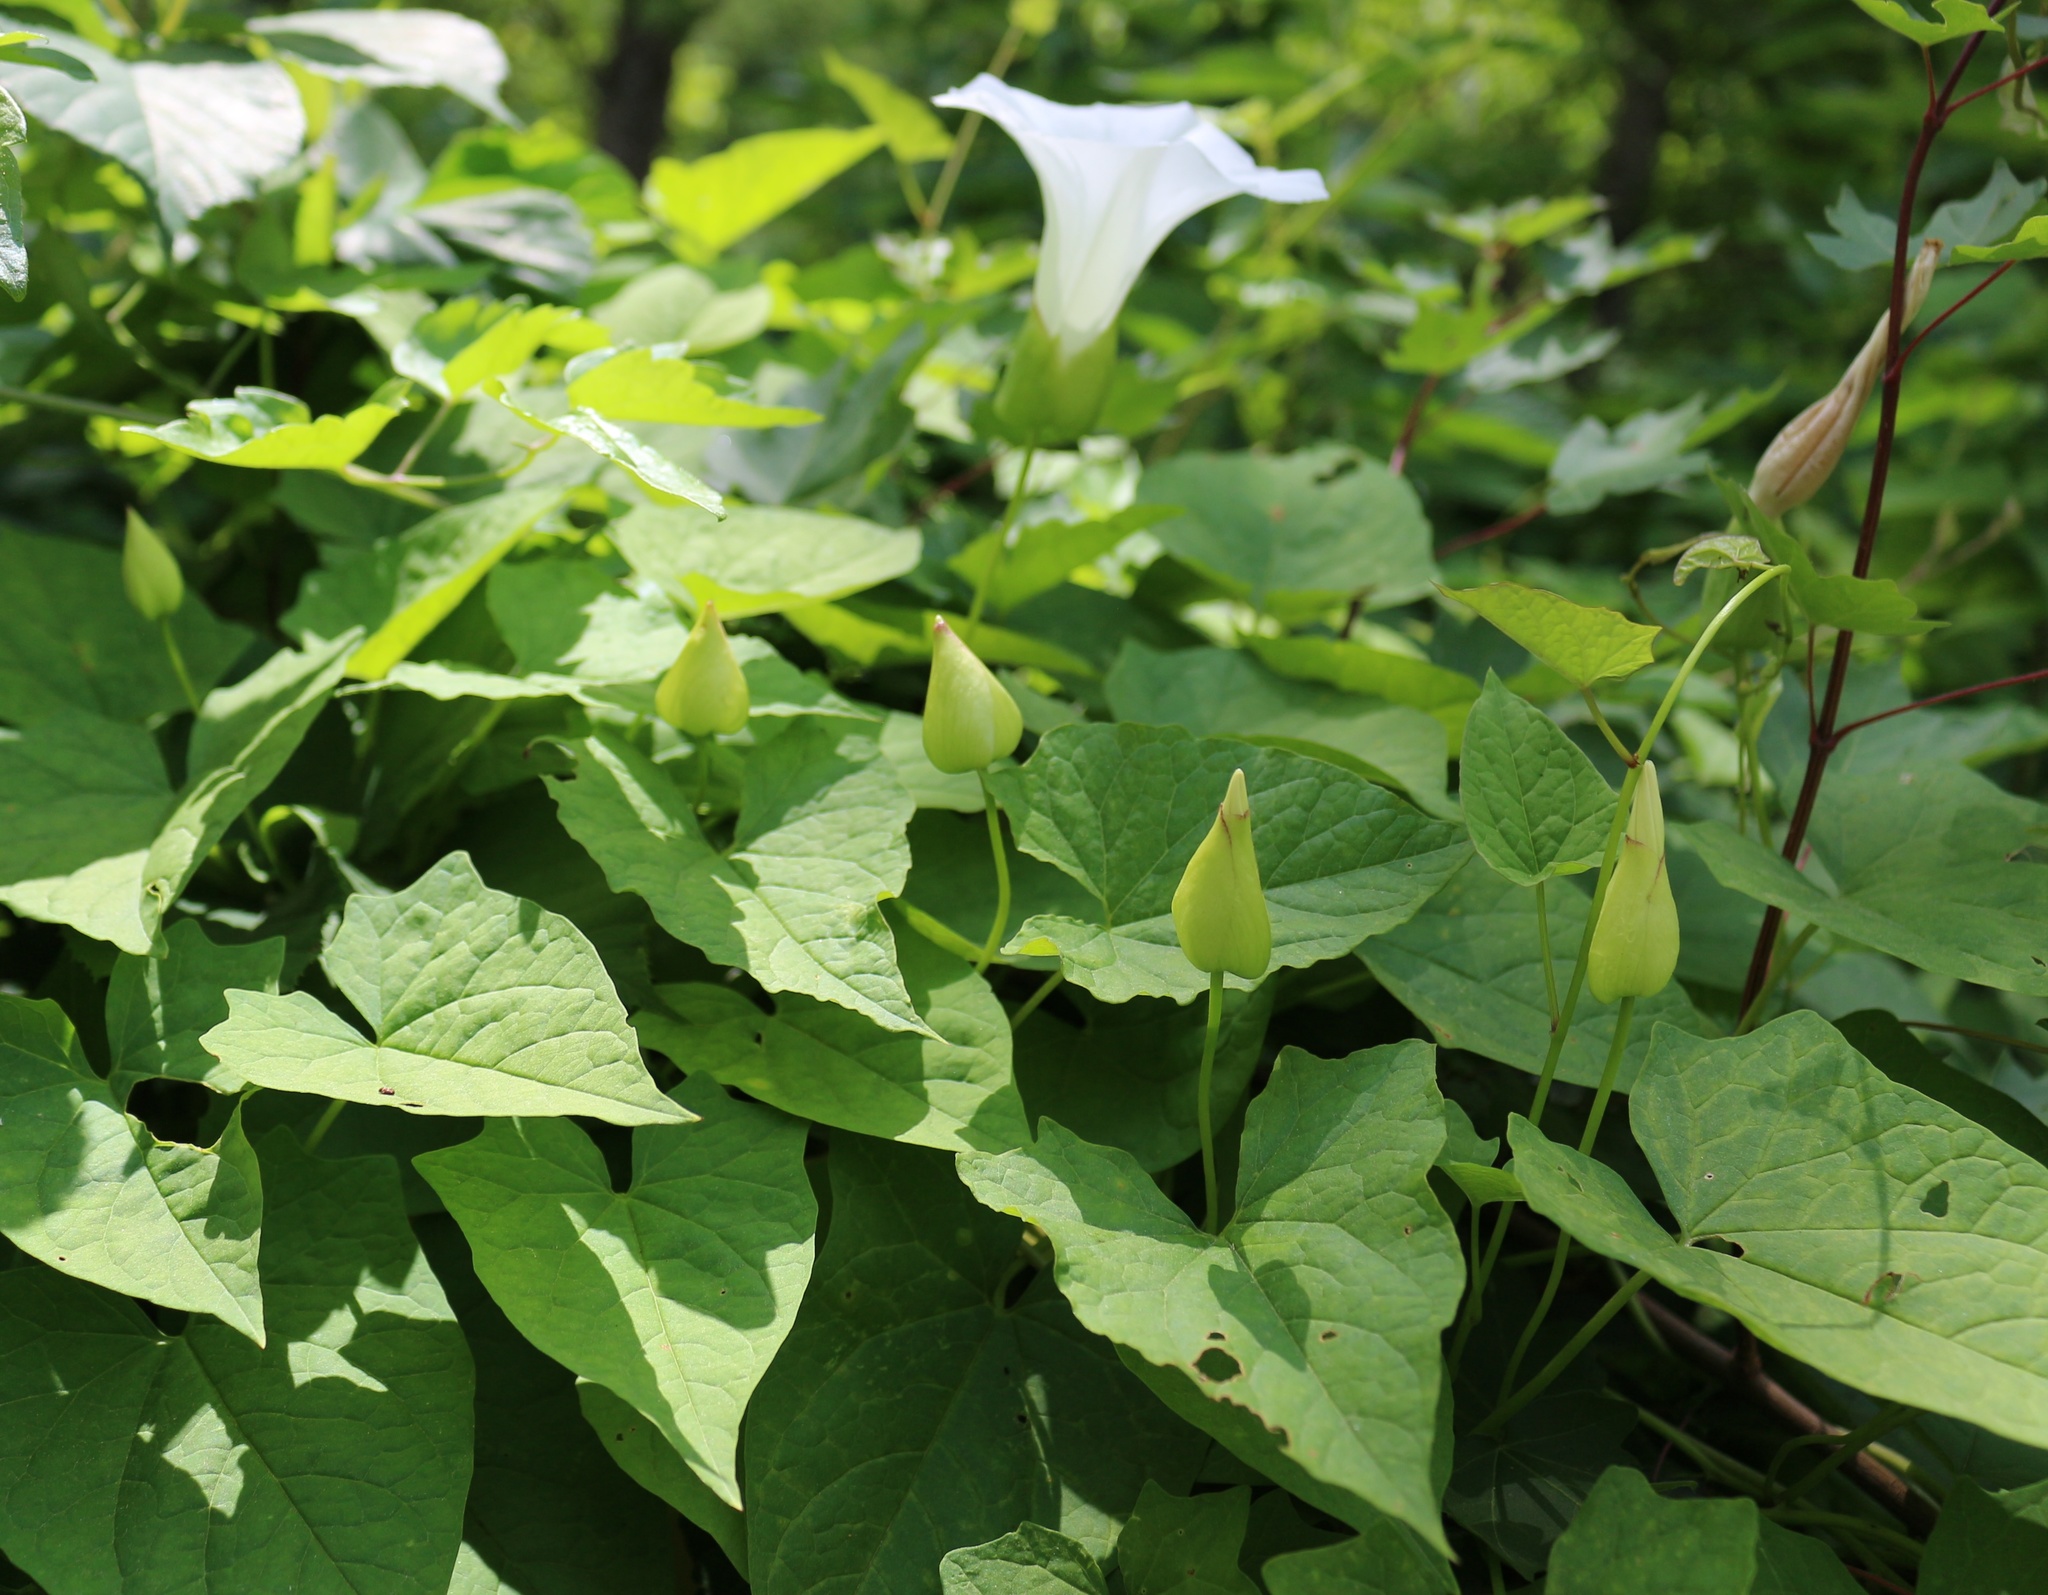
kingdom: Plantae
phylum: Tracheophyta
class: Magnoliopsida
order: Solanales
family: Convolvulaceae
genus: Calystegia
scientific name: Calystegia silvatica
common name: Large bindweed
